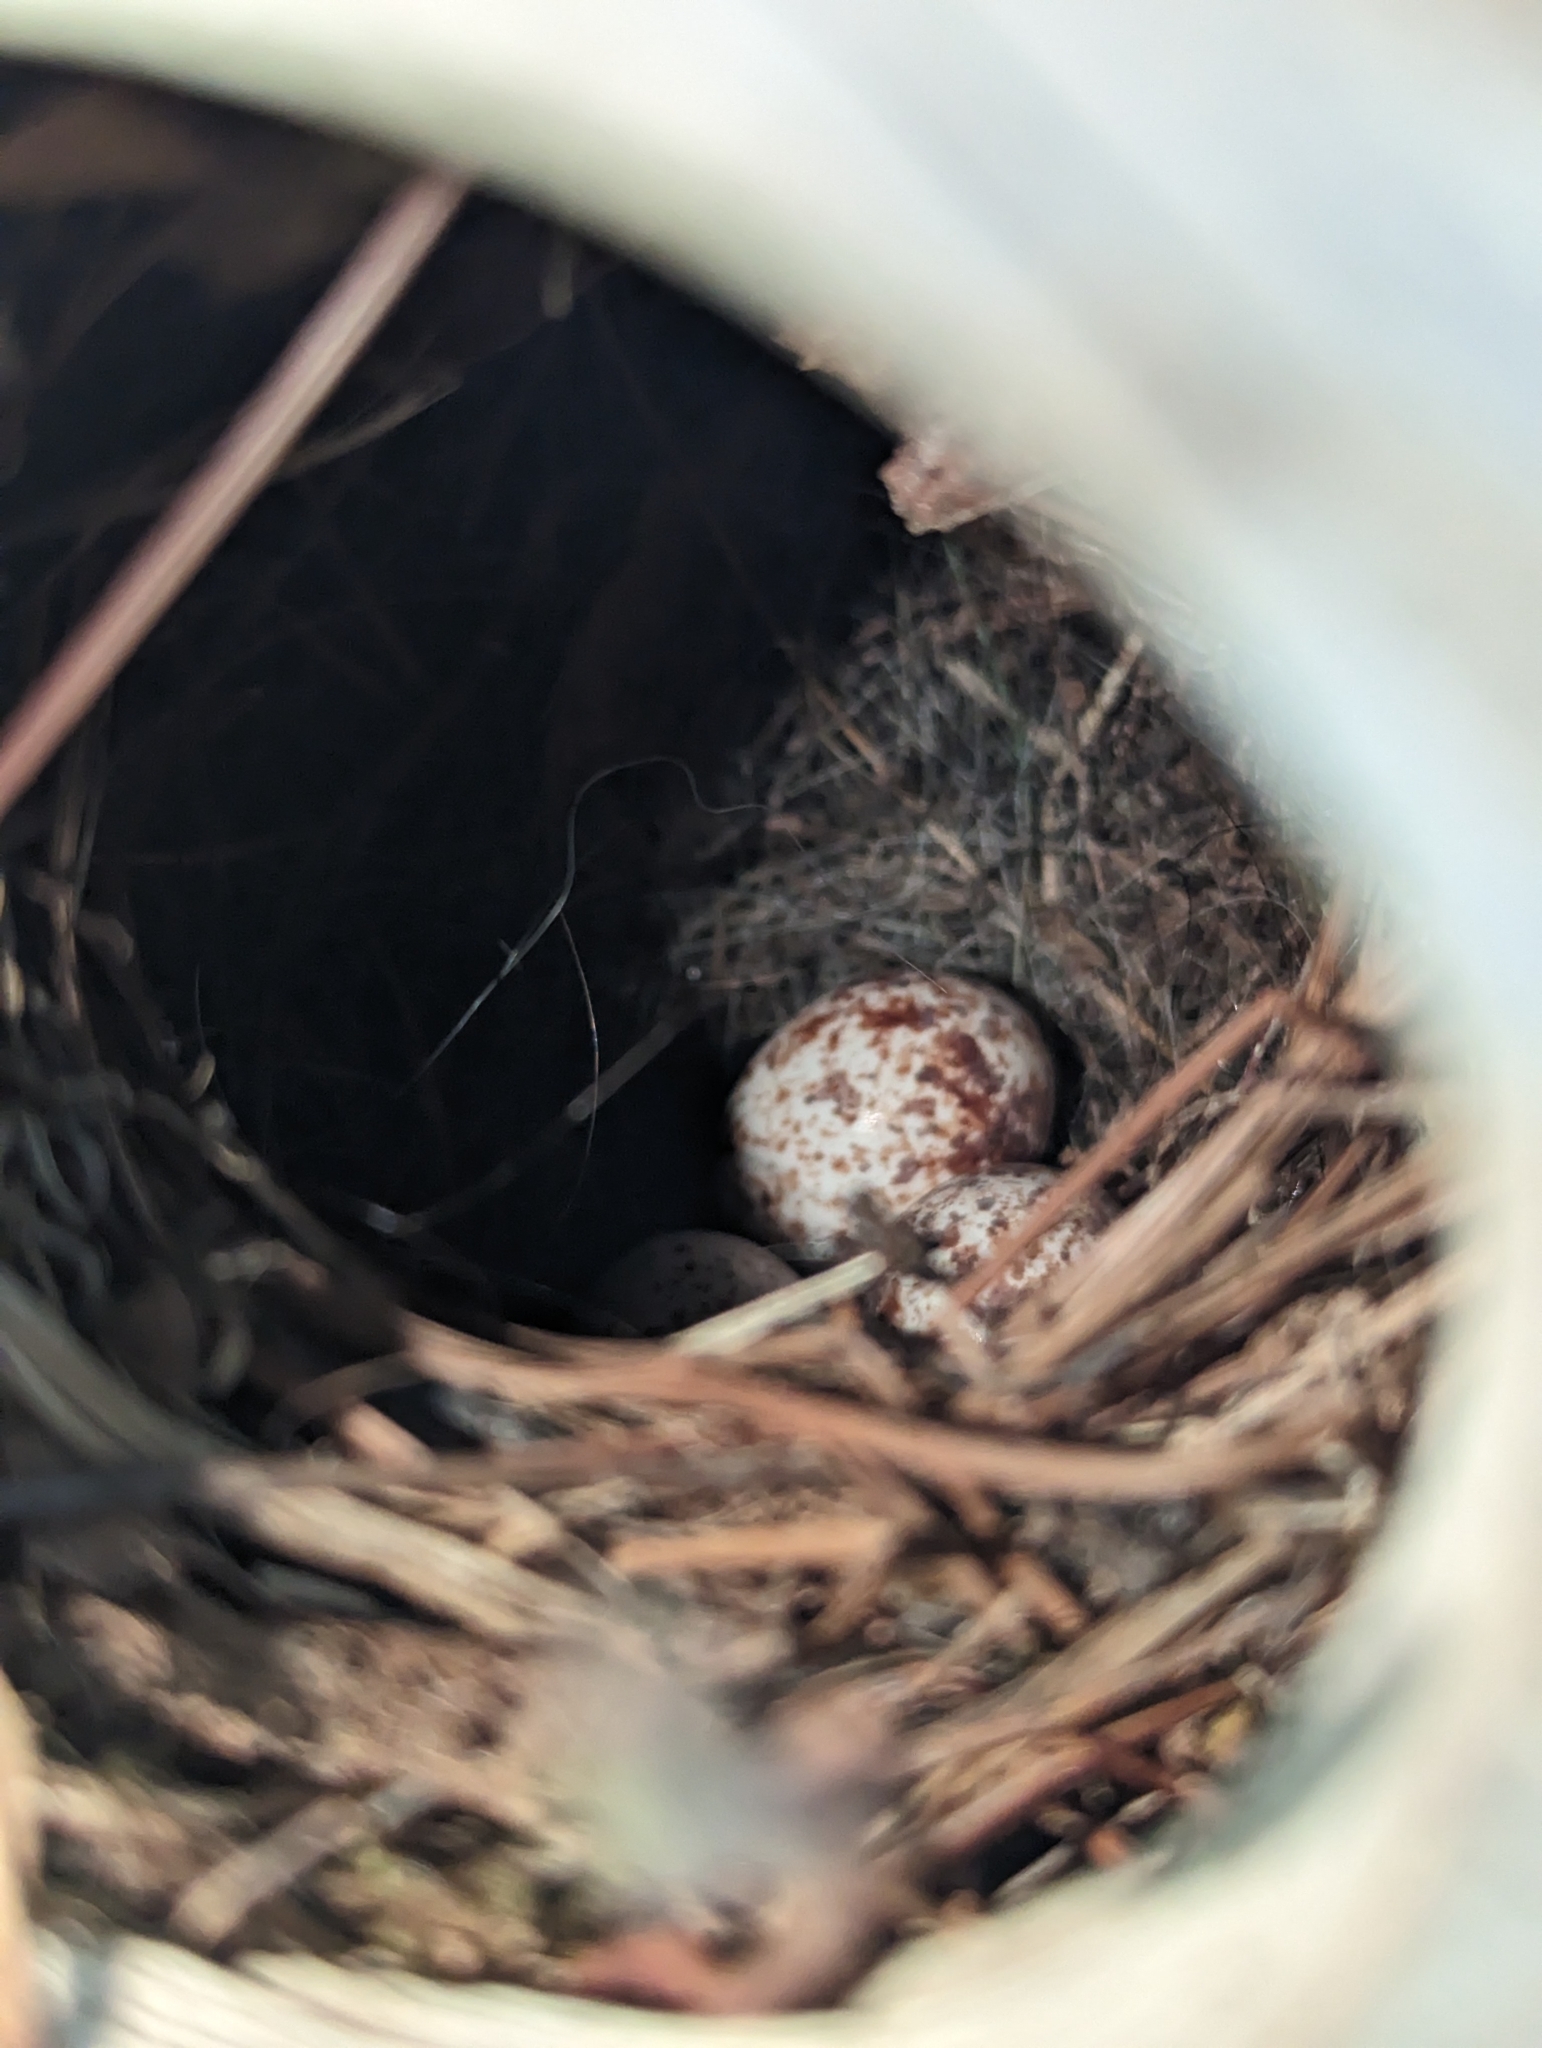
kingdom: Animalia
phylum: Chordata
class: Aves
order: Passeriformes
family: Troglodytidae
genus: Thryothorus
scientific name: Thryothorus ludovicianus
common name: Carolina wren
